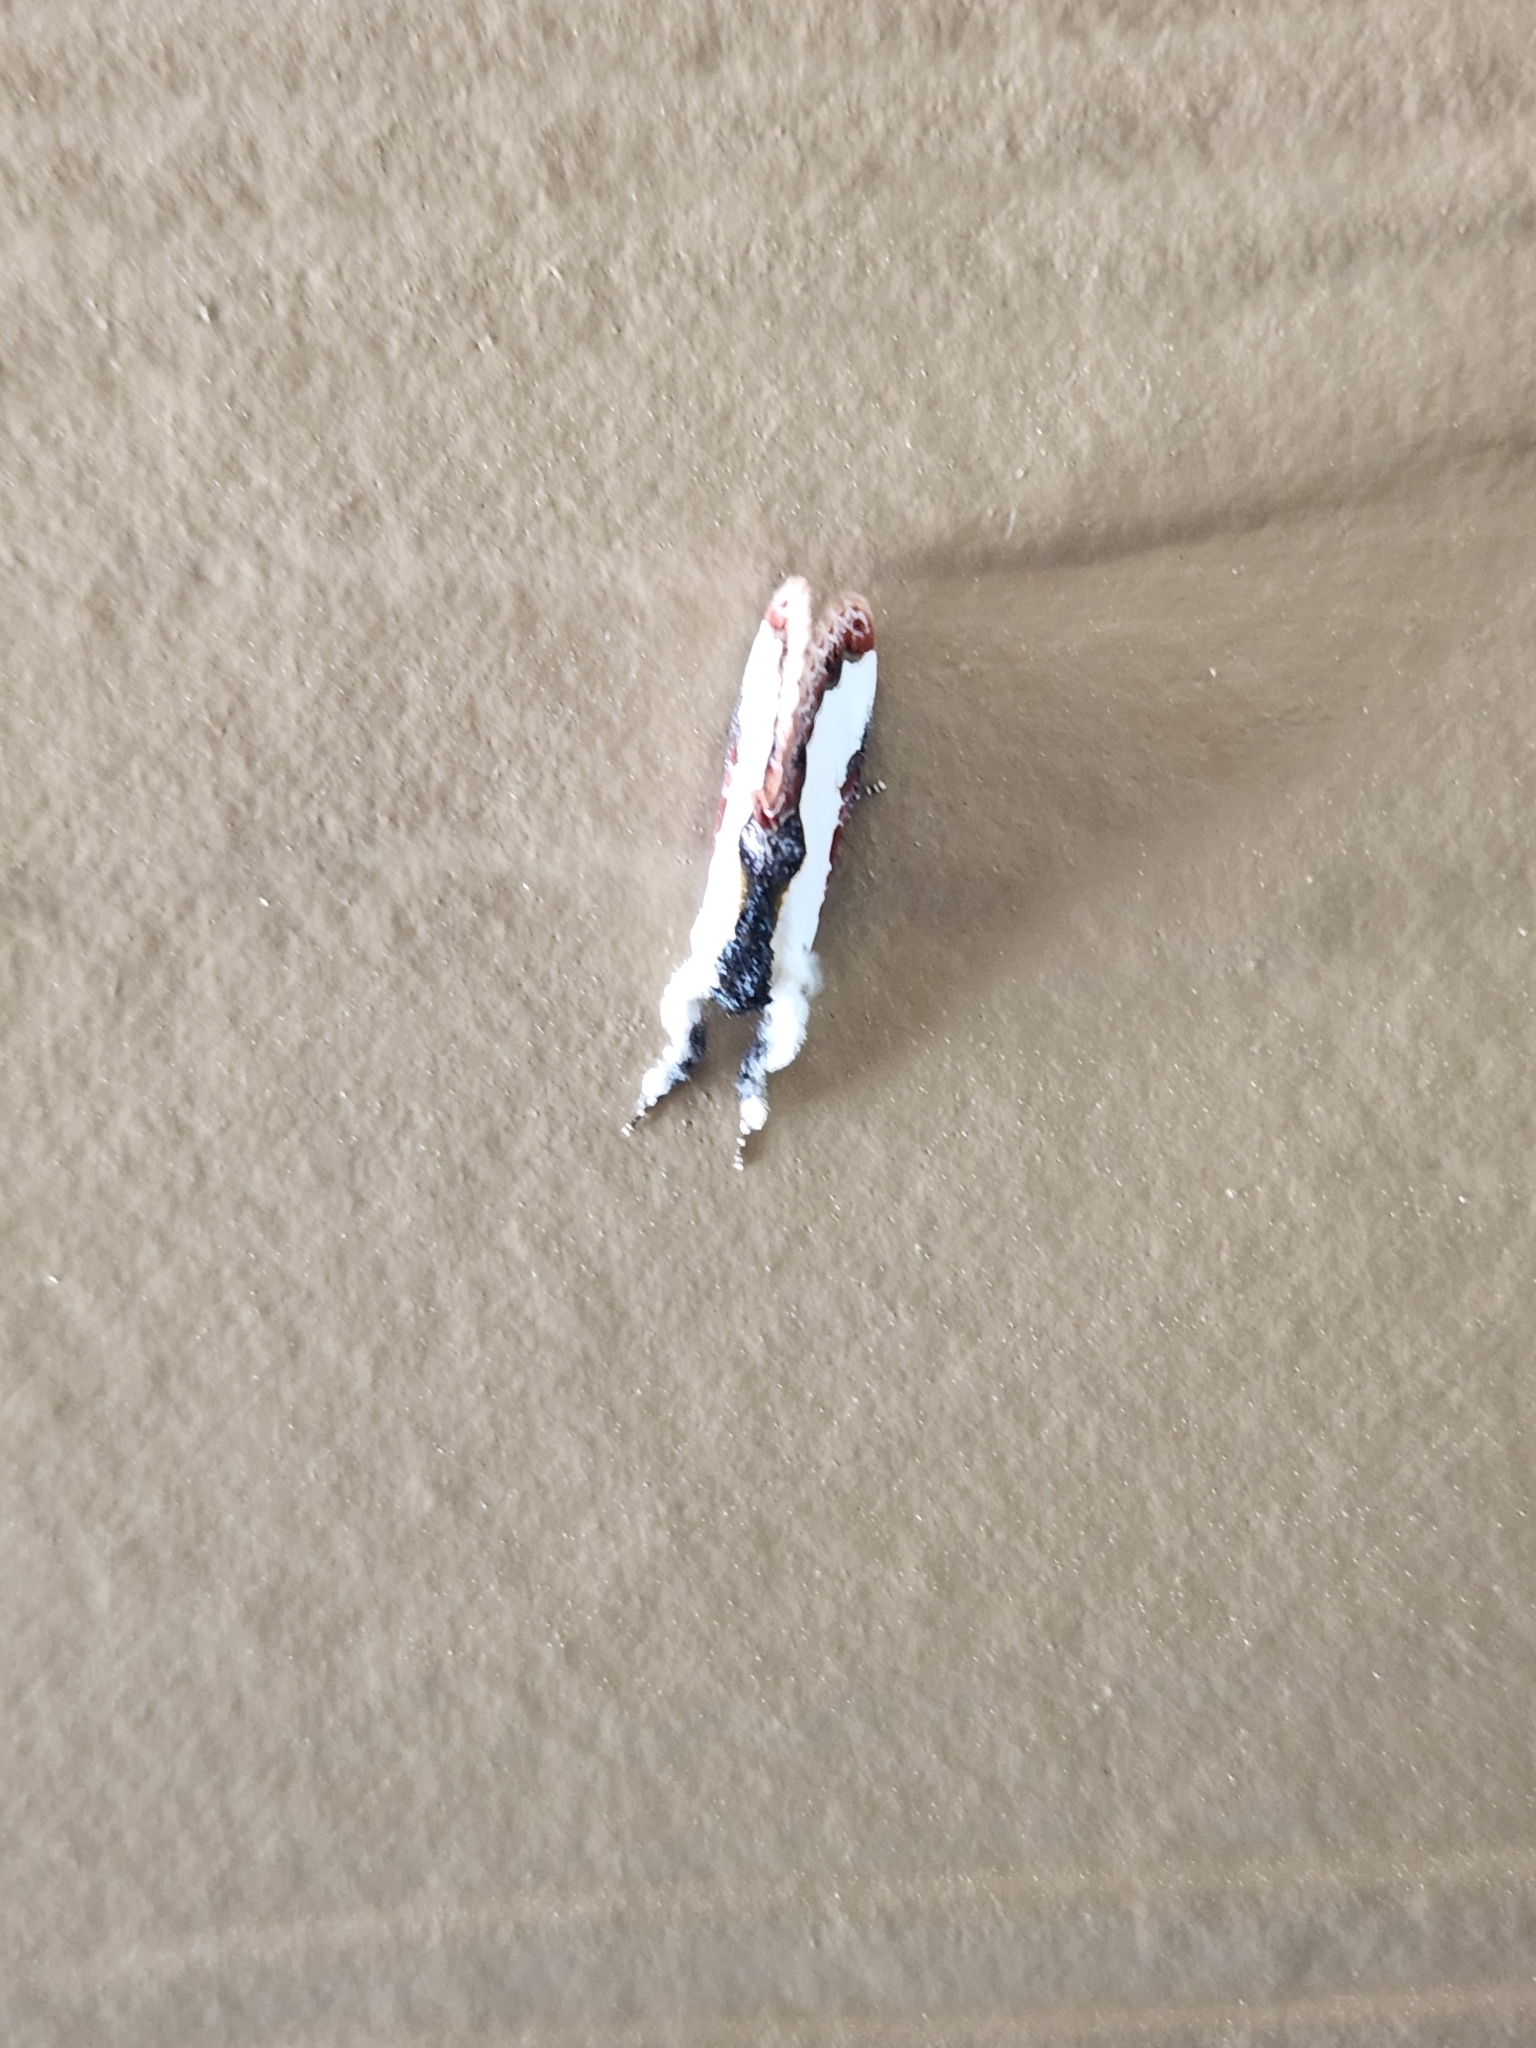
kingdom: Animalia
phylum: Arthropoda
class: Insecta
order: Lepidoptera
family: Noctuidae
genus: Eudryas
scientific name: Eudryas unio
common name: Pearly wood-nymph
